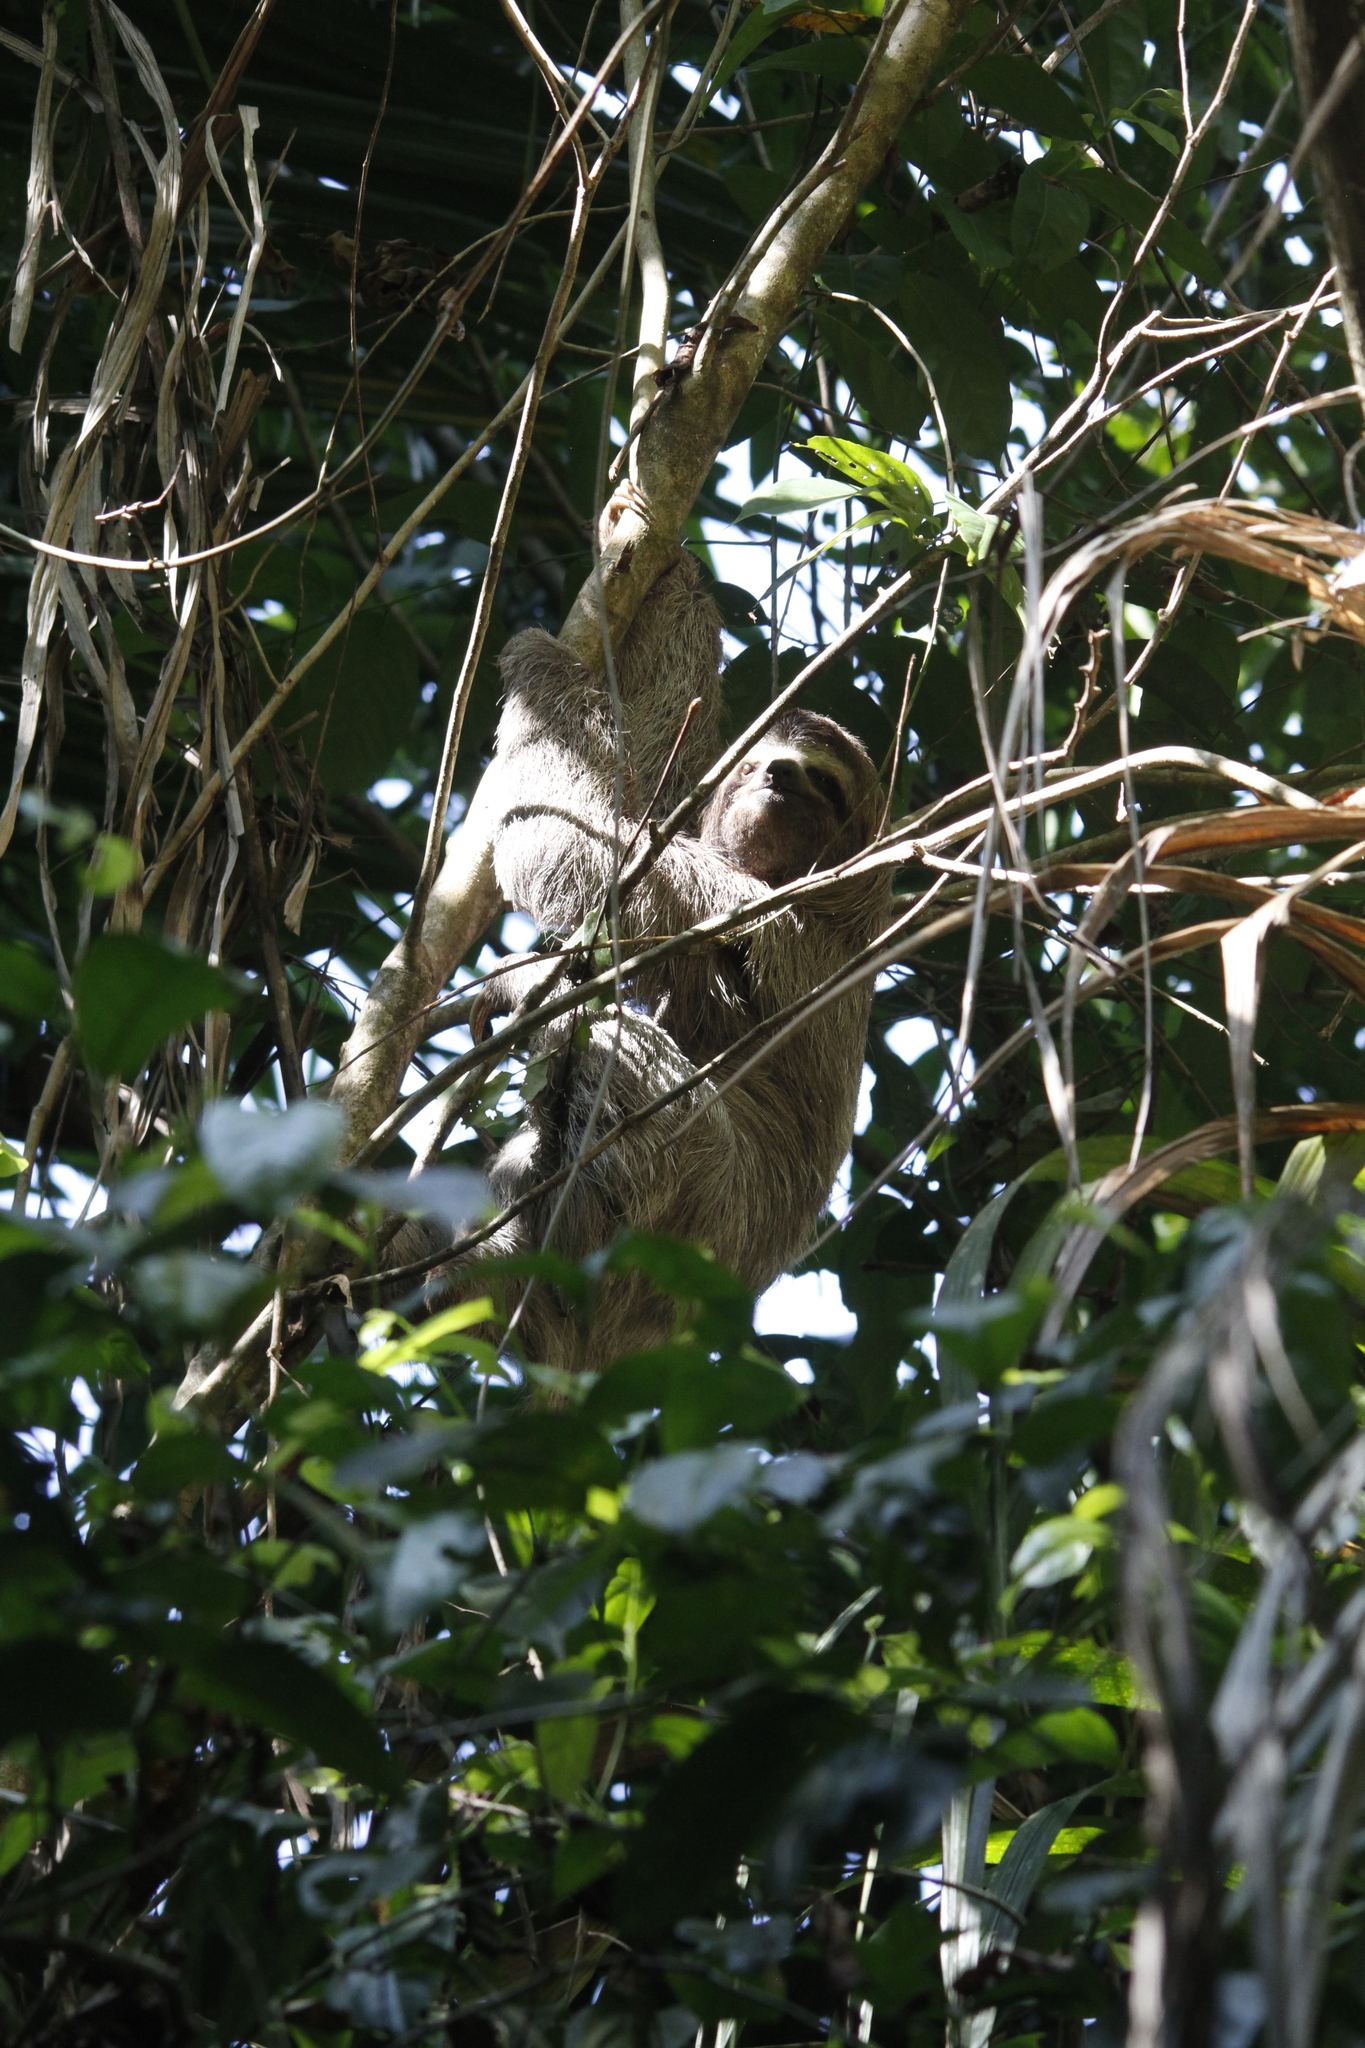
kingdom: Animalia
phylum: Chordata
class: Mammalia
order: Pilosa
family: Bradypodidae
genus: Bradypus
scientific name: Bradypus variegatus
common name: Brown-throated three-toed sloth
